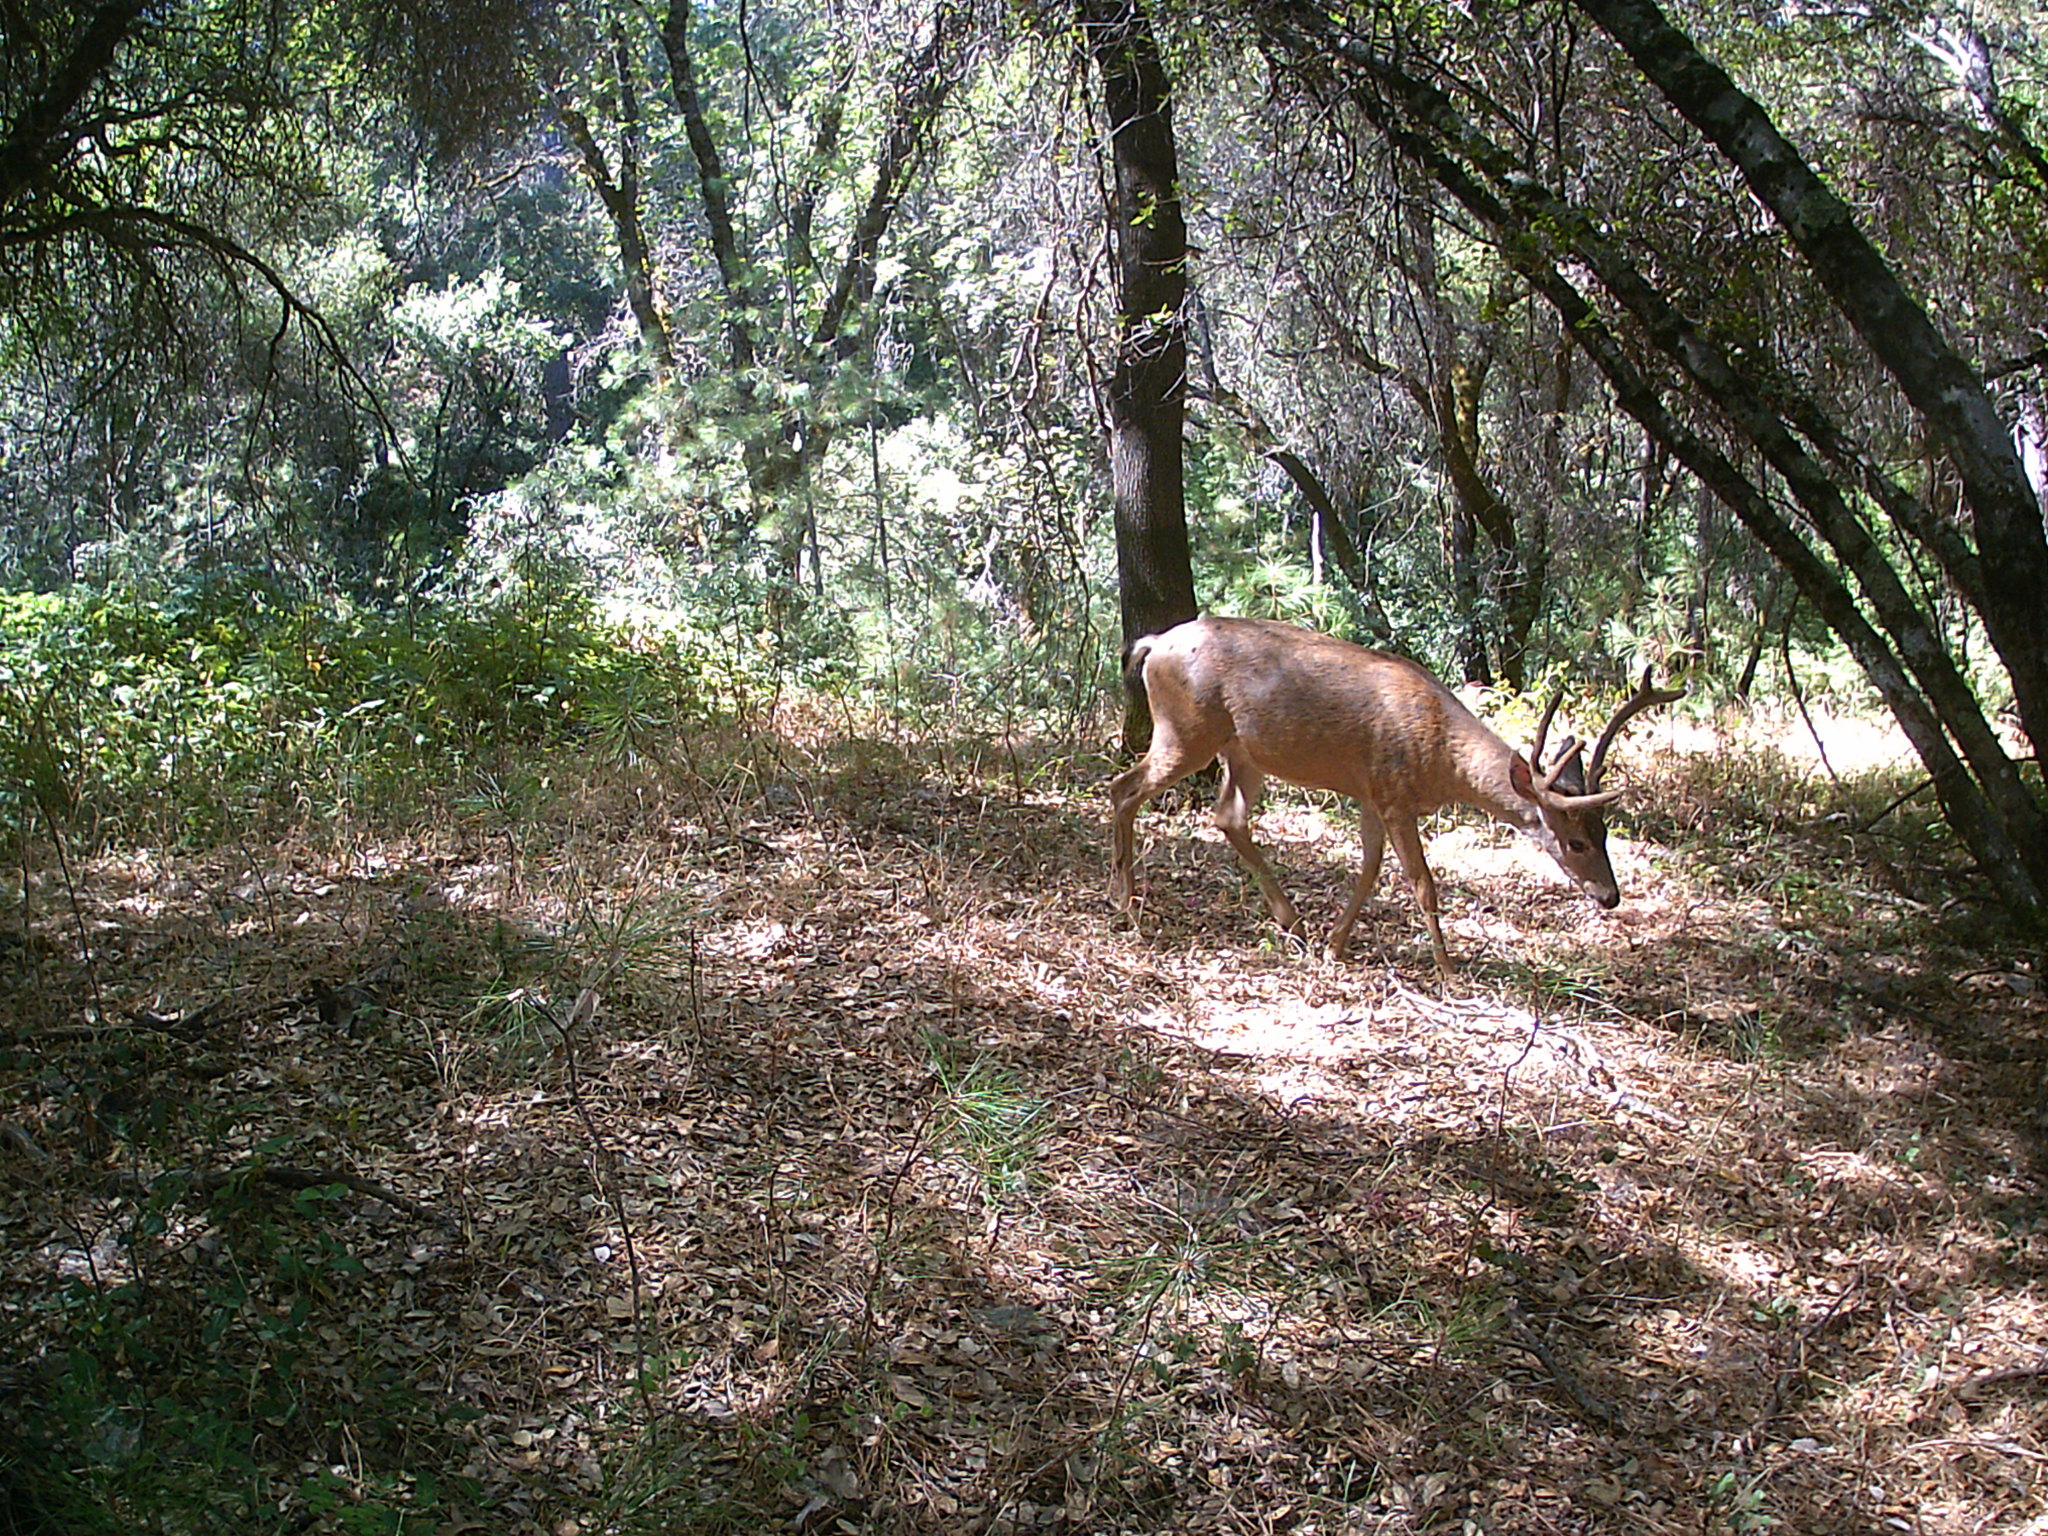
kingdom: Animalia
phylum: Chordata
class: Mammalia
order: Artiodactyla
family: Cervidae
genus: Odocoileus
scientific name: Odocoileus hemionus
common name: Mule deer
